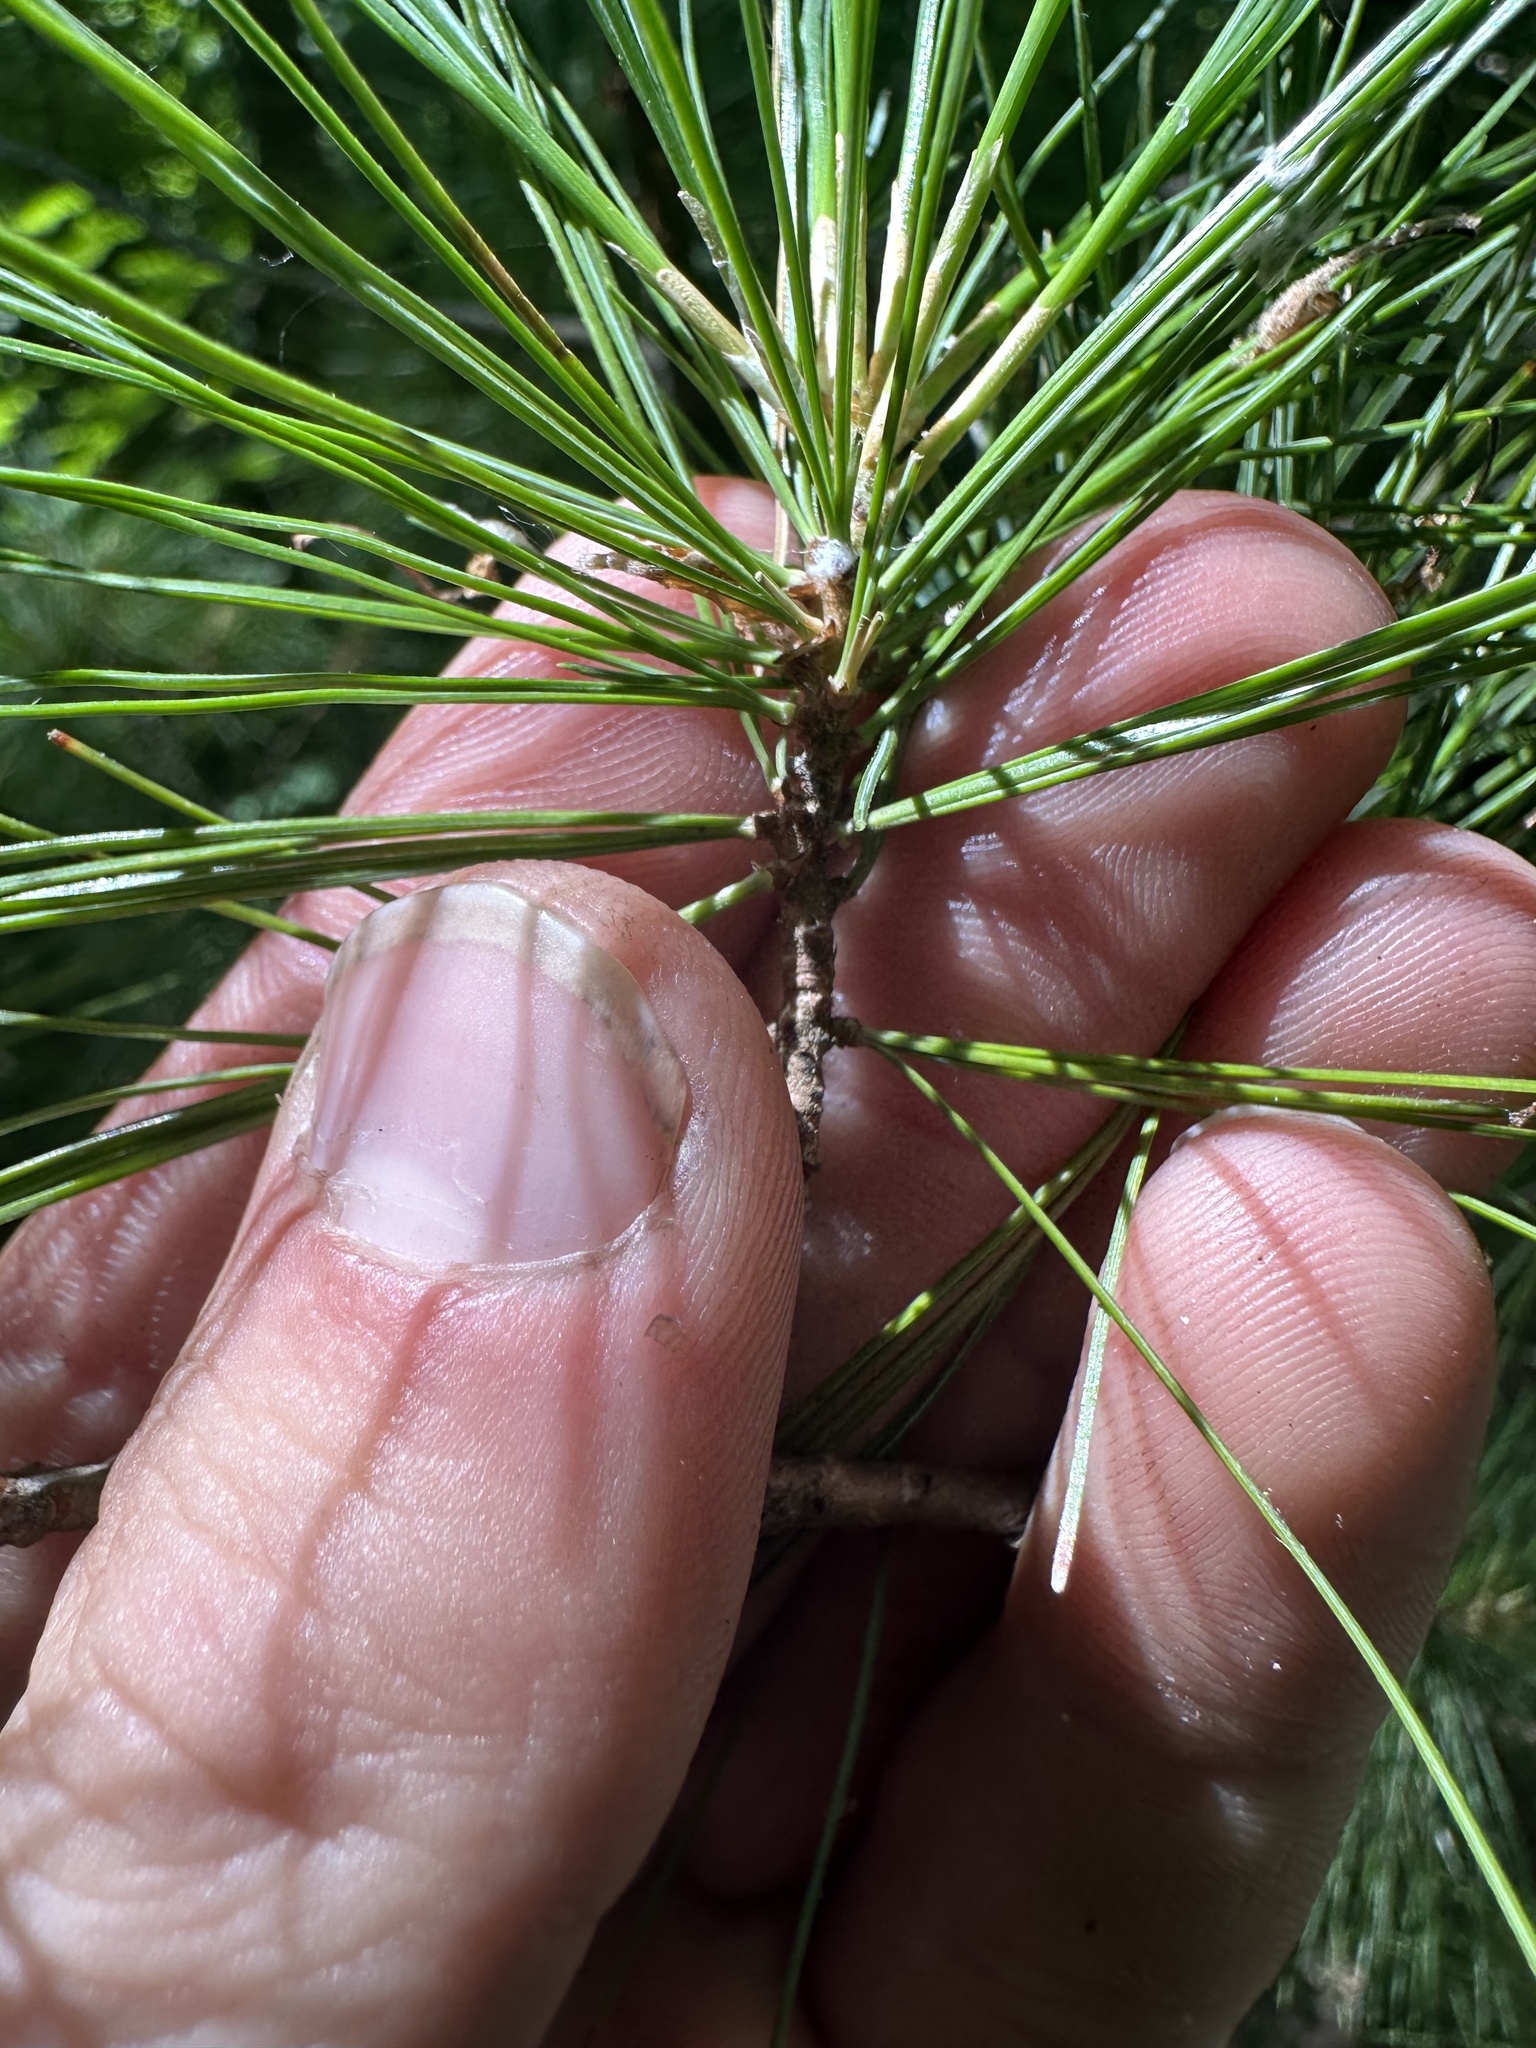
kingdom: Plantae
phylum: Tracheophyta
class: Pinopsida
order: Pinales
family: Pinaceae
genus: Pinus
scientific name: Pinus strobus
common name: Weymouth pine
